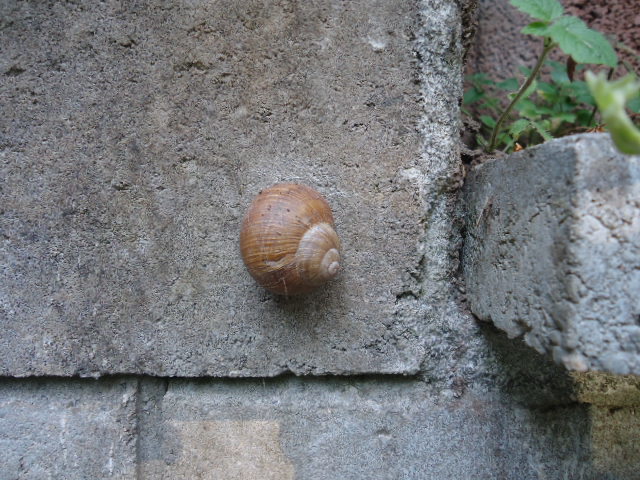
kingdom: Animalia
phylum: Mollusca
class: Gastropoda
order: Stylommatophora
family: Helicidae
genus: Helix
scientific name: Helix pomatia
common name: Roman snail
